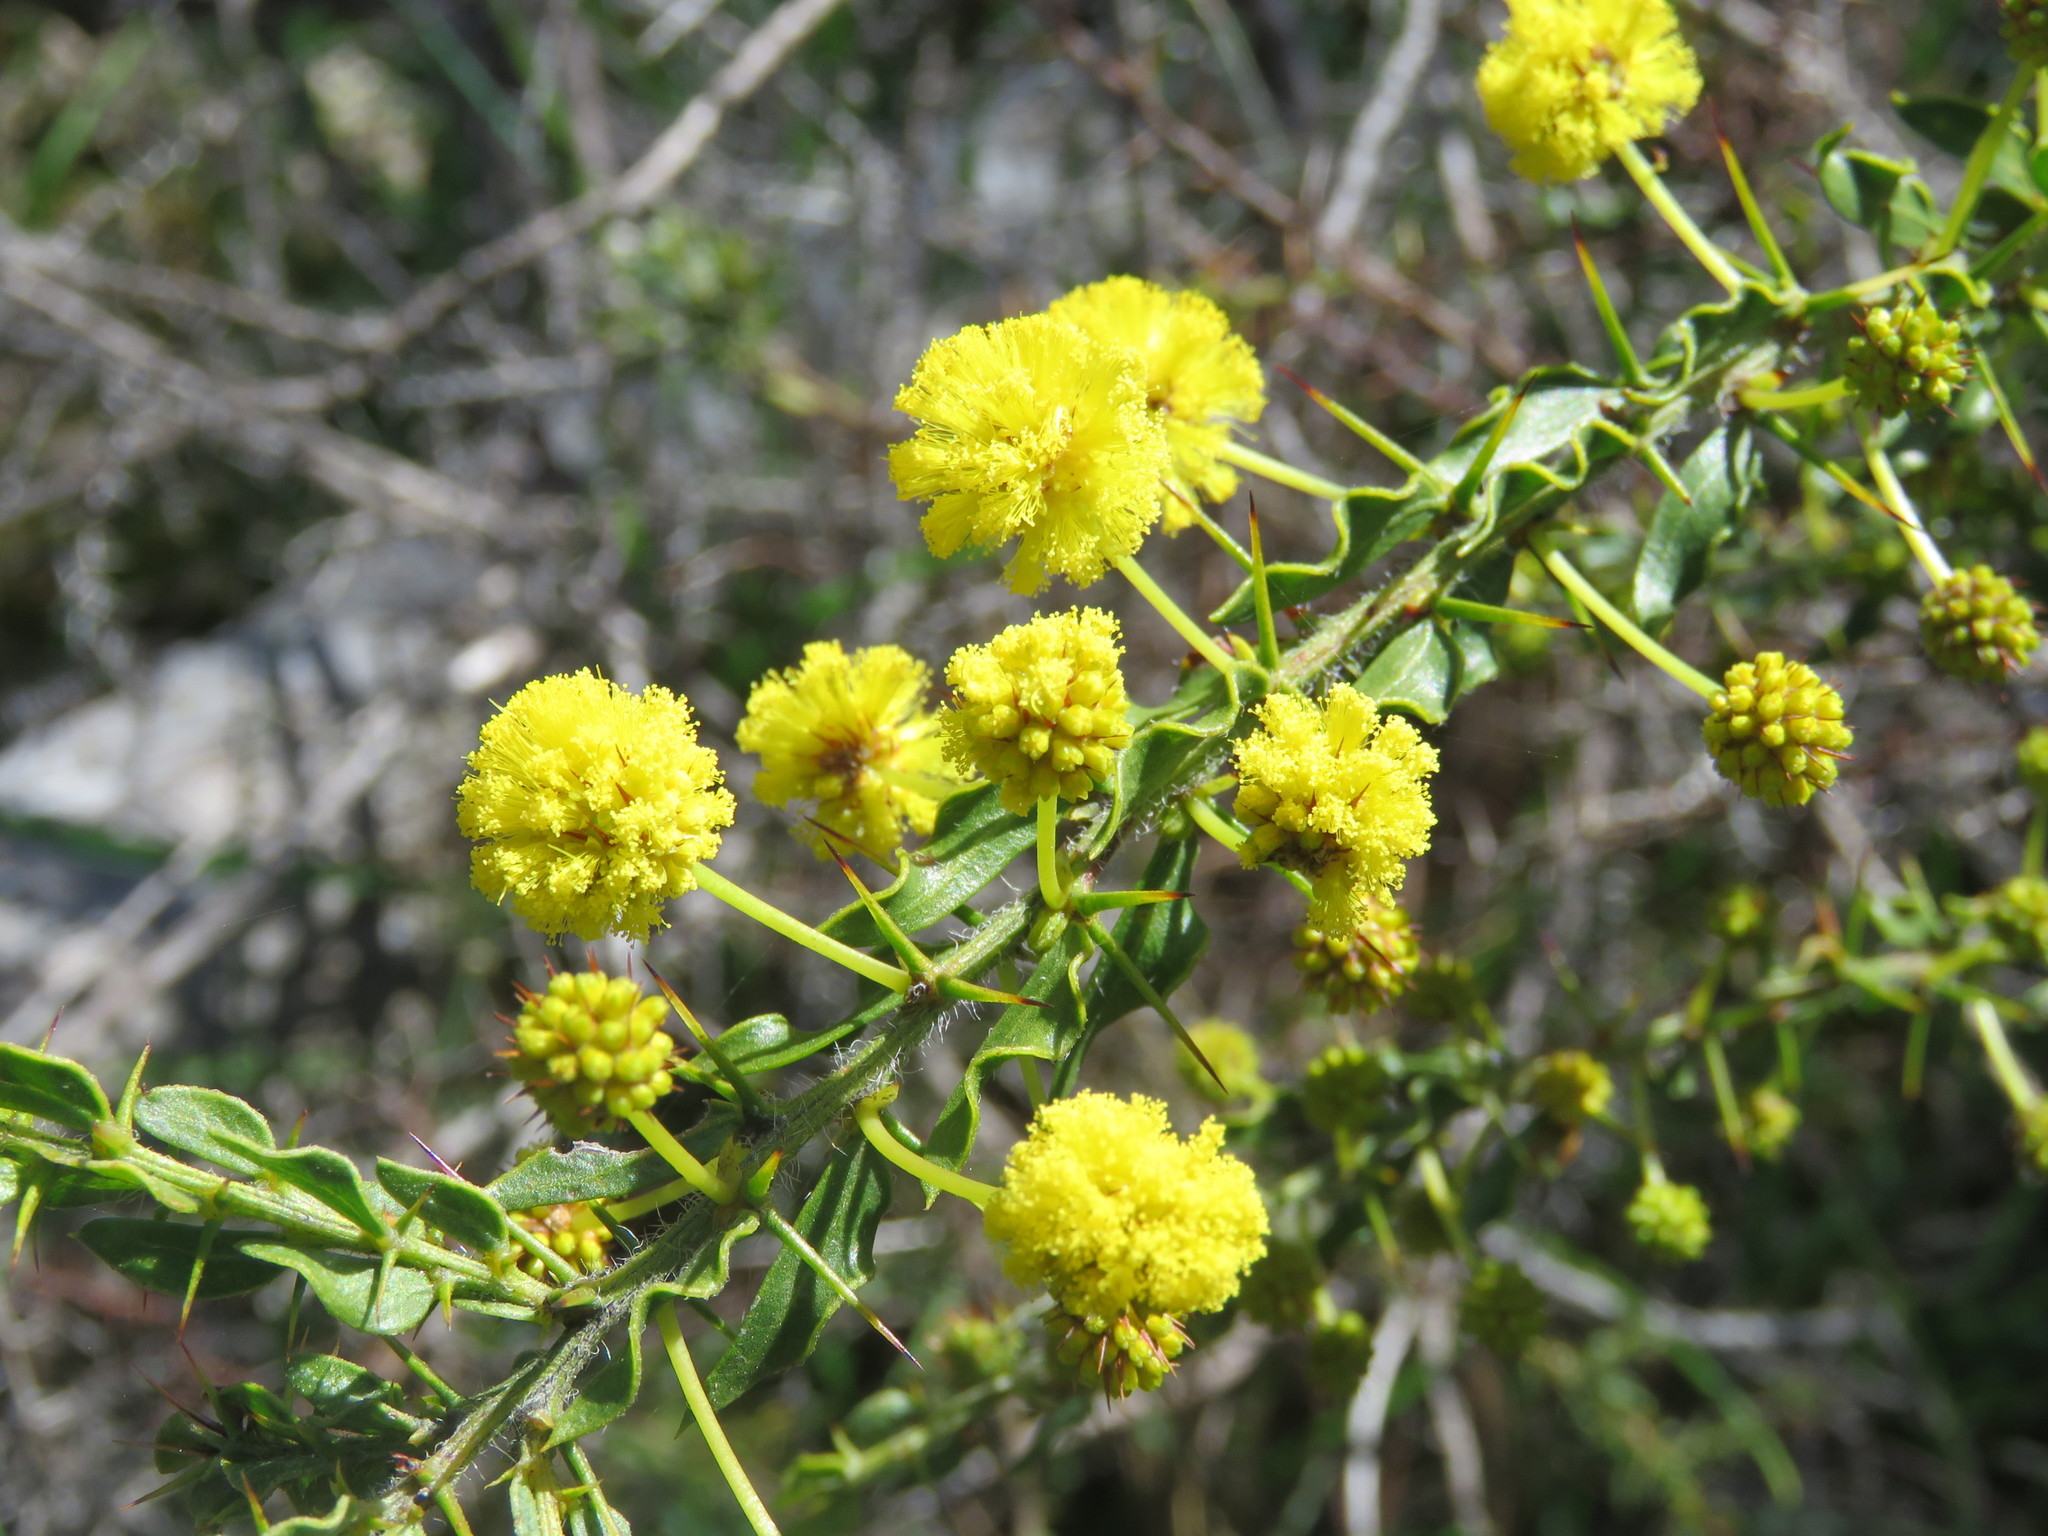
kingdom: Plantae
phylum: Tracheophyta
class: Magnoliopsida
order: Fabales
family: Fabaceae
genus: Acacia
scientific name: Acacia paradoxa
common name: Paradox acacia
